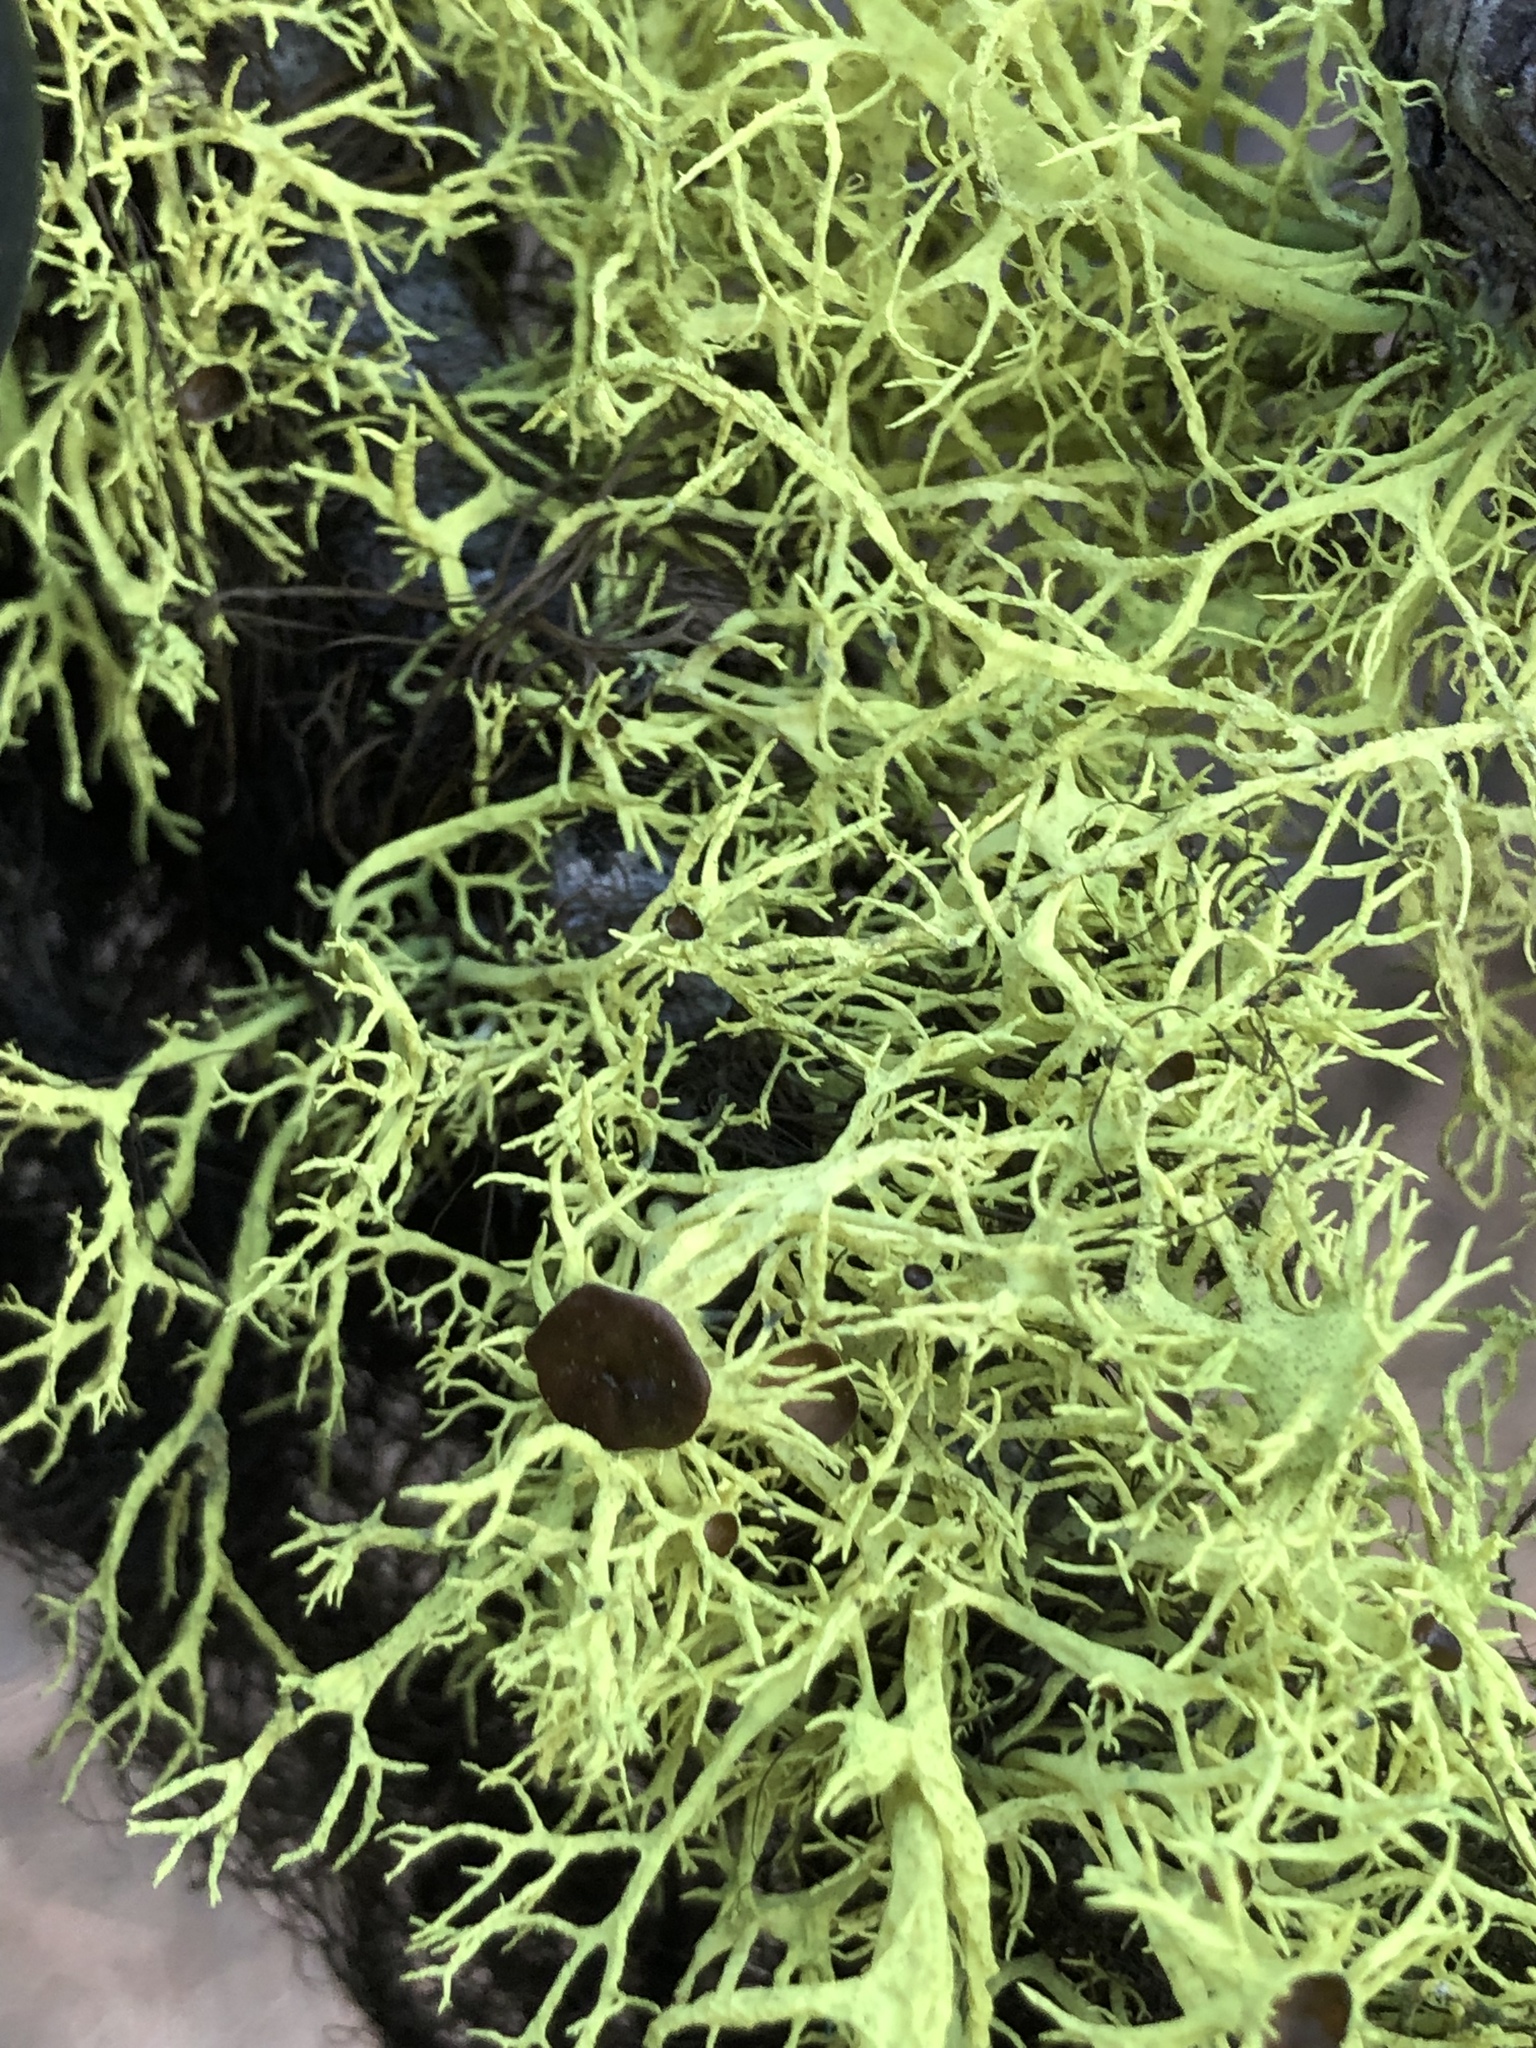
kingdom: Fungi
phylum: Ascomycota
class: Lecanoromycetes
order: Lecanorales
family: Parmeliaceae
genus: Letharia
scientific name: Letharia columbiana
